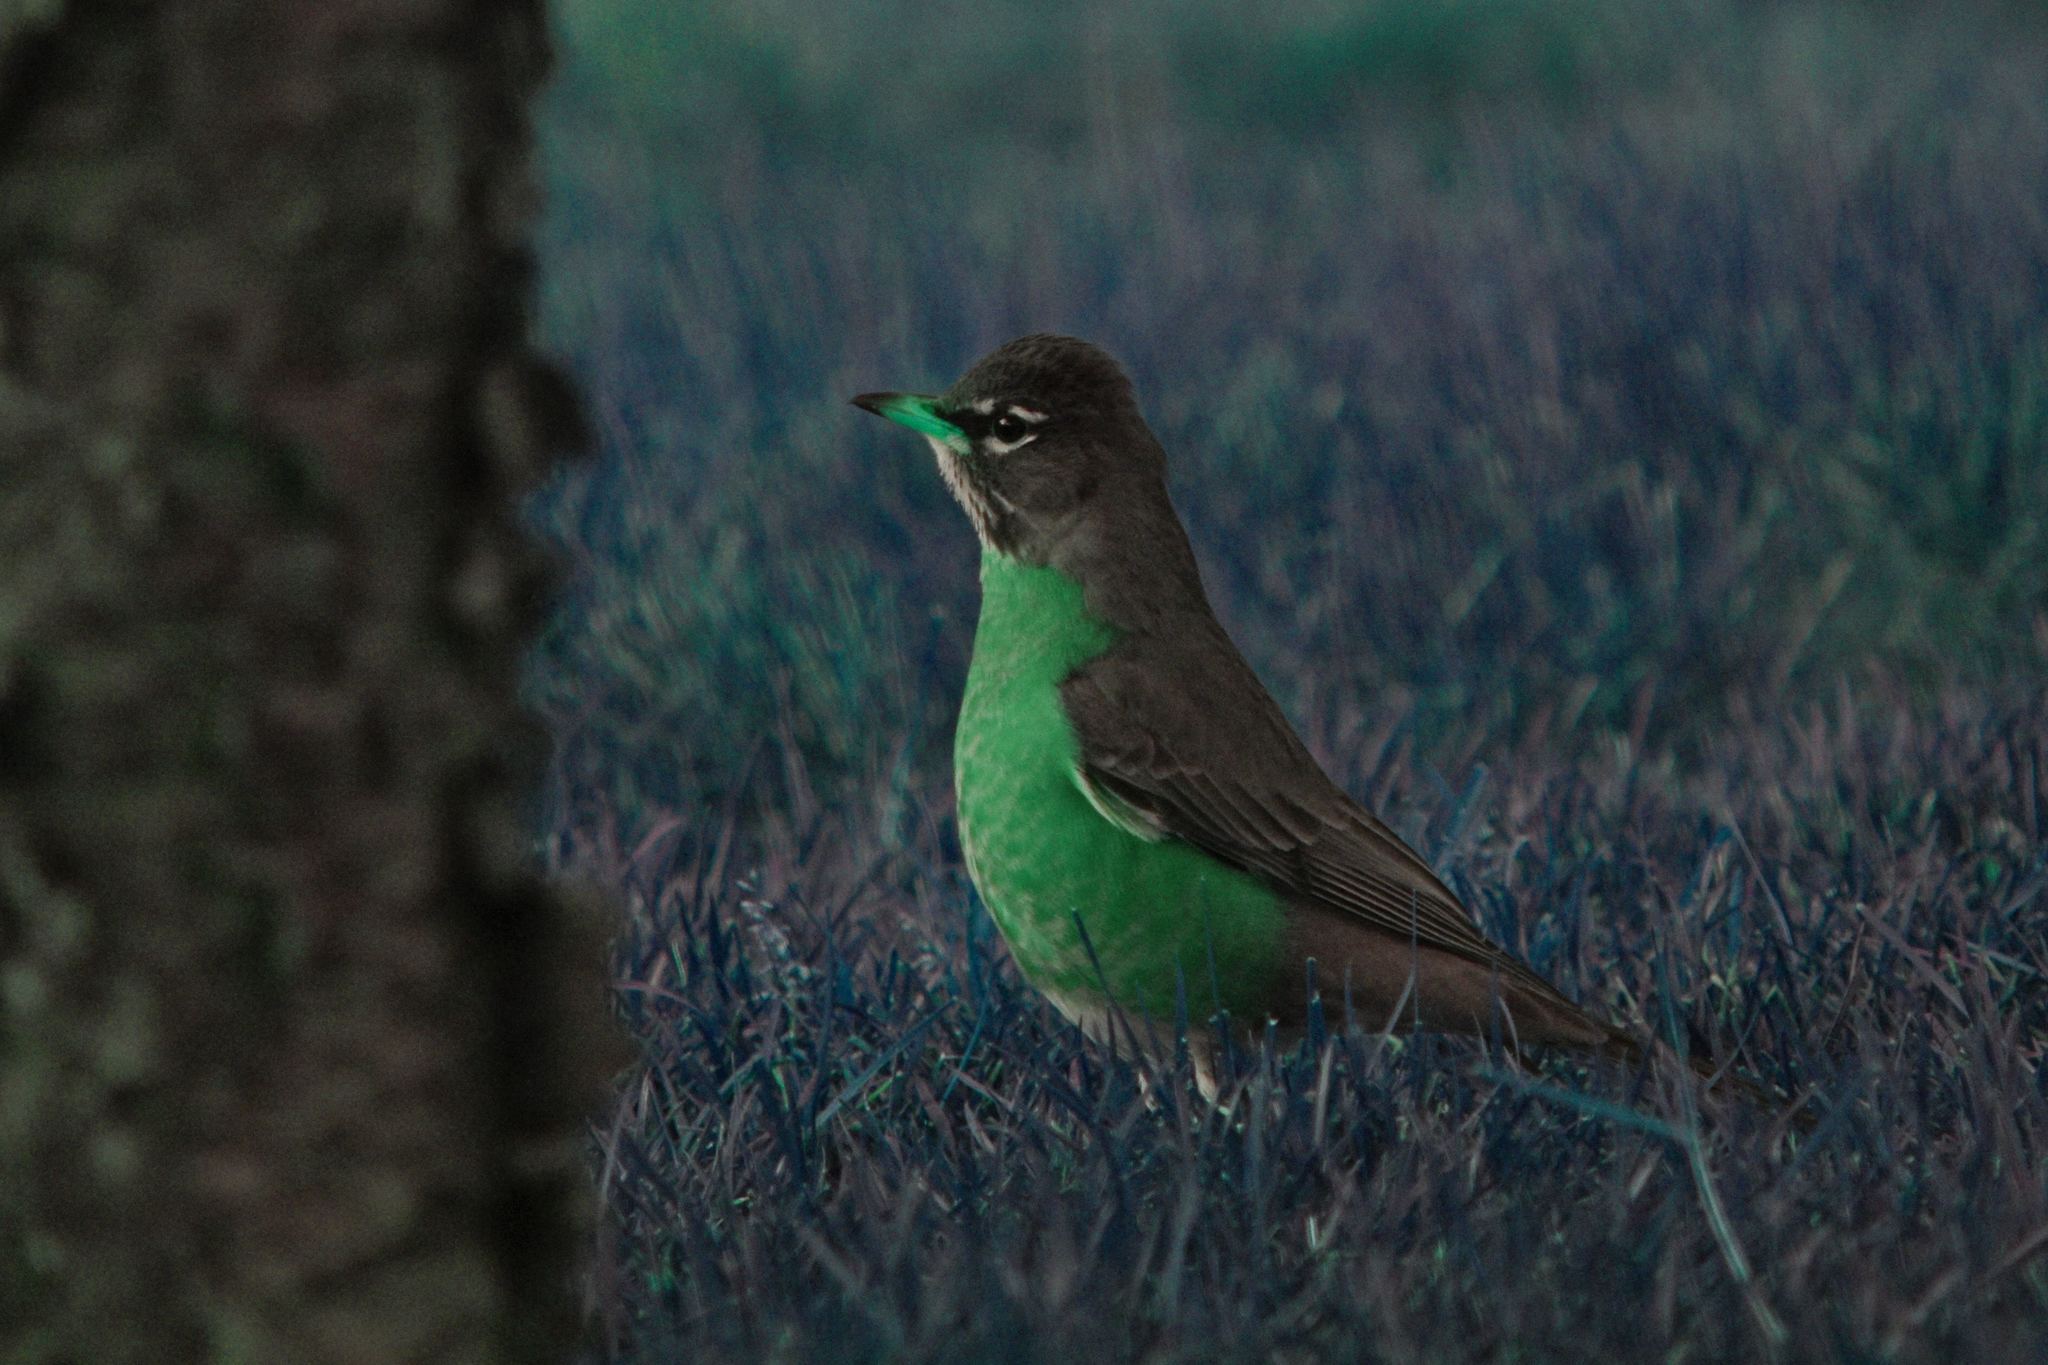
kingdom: Animalia
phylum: Chordata
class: Aves
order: Passeriformes
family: Turdidae
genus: Turdus
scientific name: Turdus migratorius
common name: American robin
